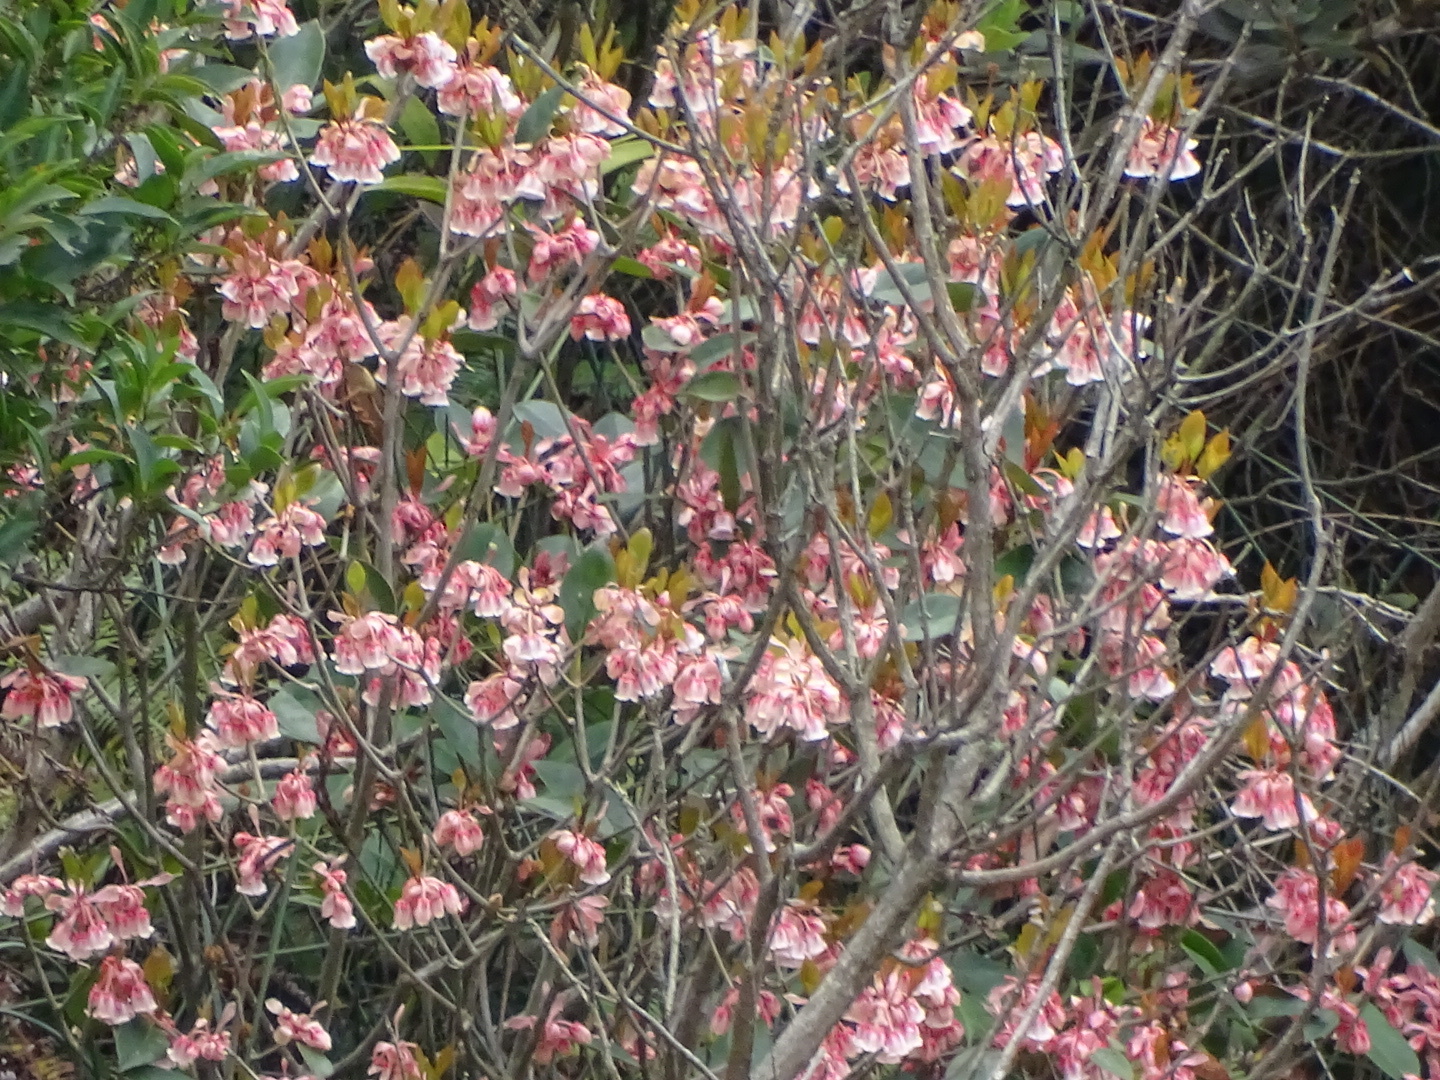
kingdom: Plantae
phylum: Tracheophyta
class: Magnoliopsida
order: Ericales
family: Ericaceae
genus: Enkianthus
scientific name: Enkianthus quinqueflorus
